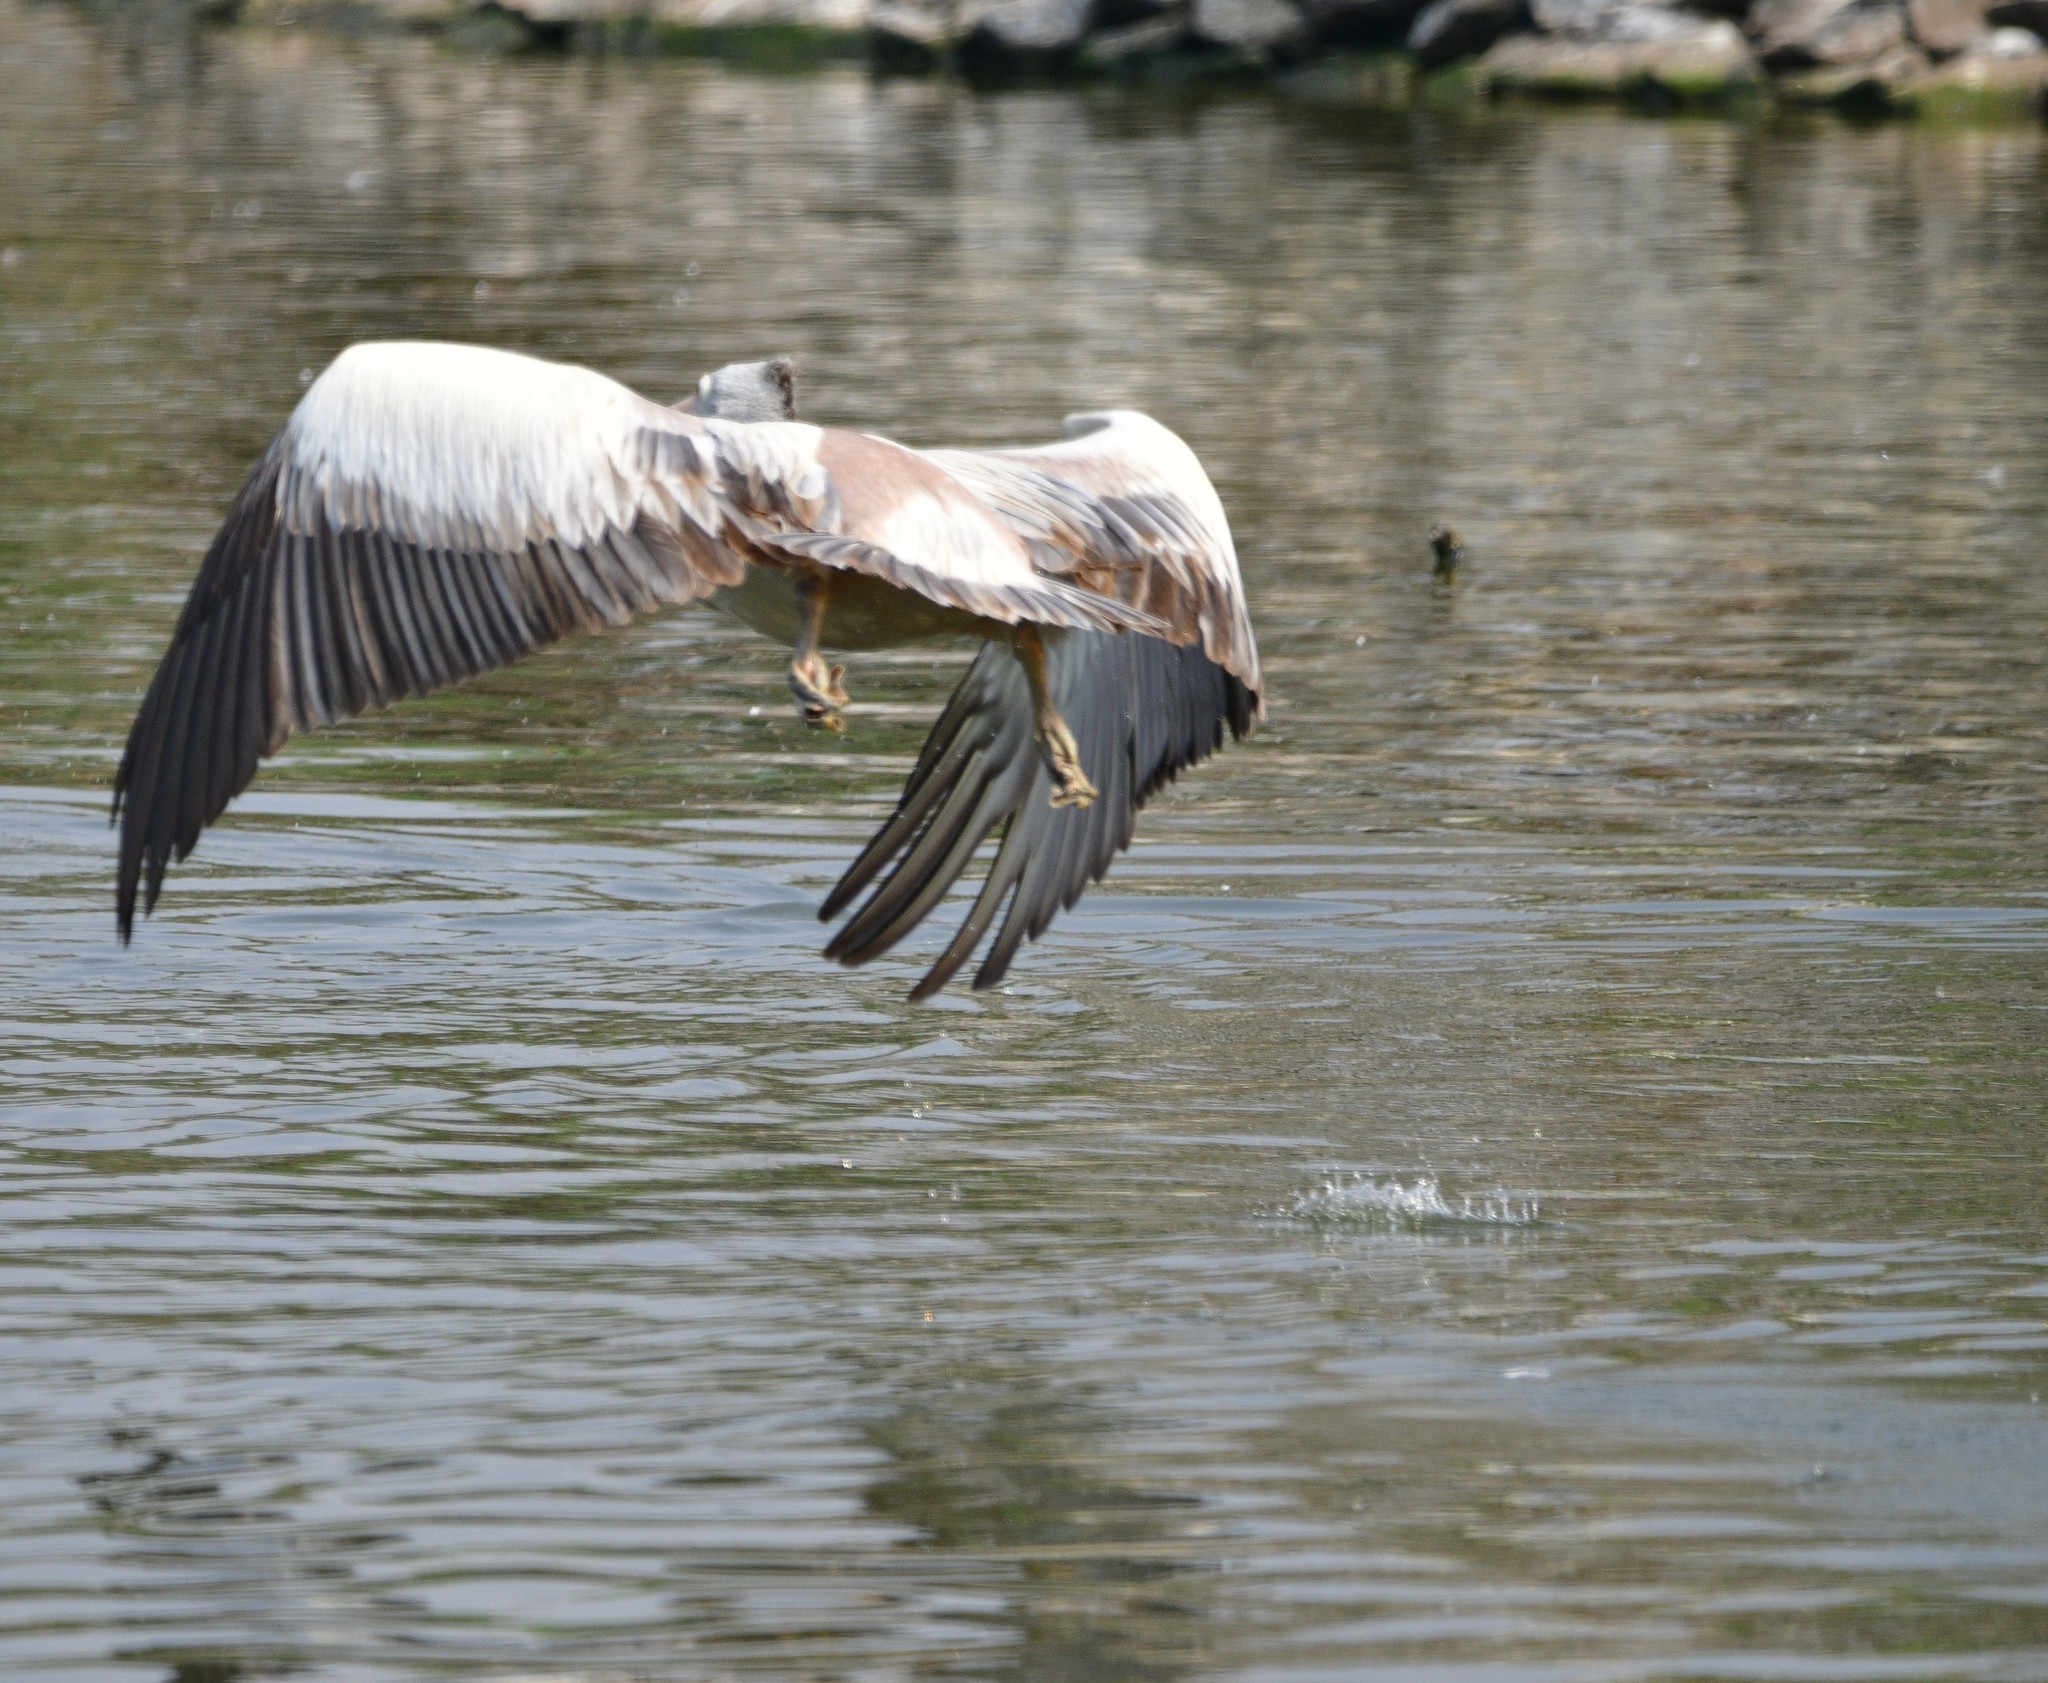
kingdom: Animalia
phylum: Chordata
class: Aves
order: Pelecaniformes
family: Pelecanidae
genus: Pelecanus
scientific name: Pelecanus philippensis
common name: Spot-billed pelican
